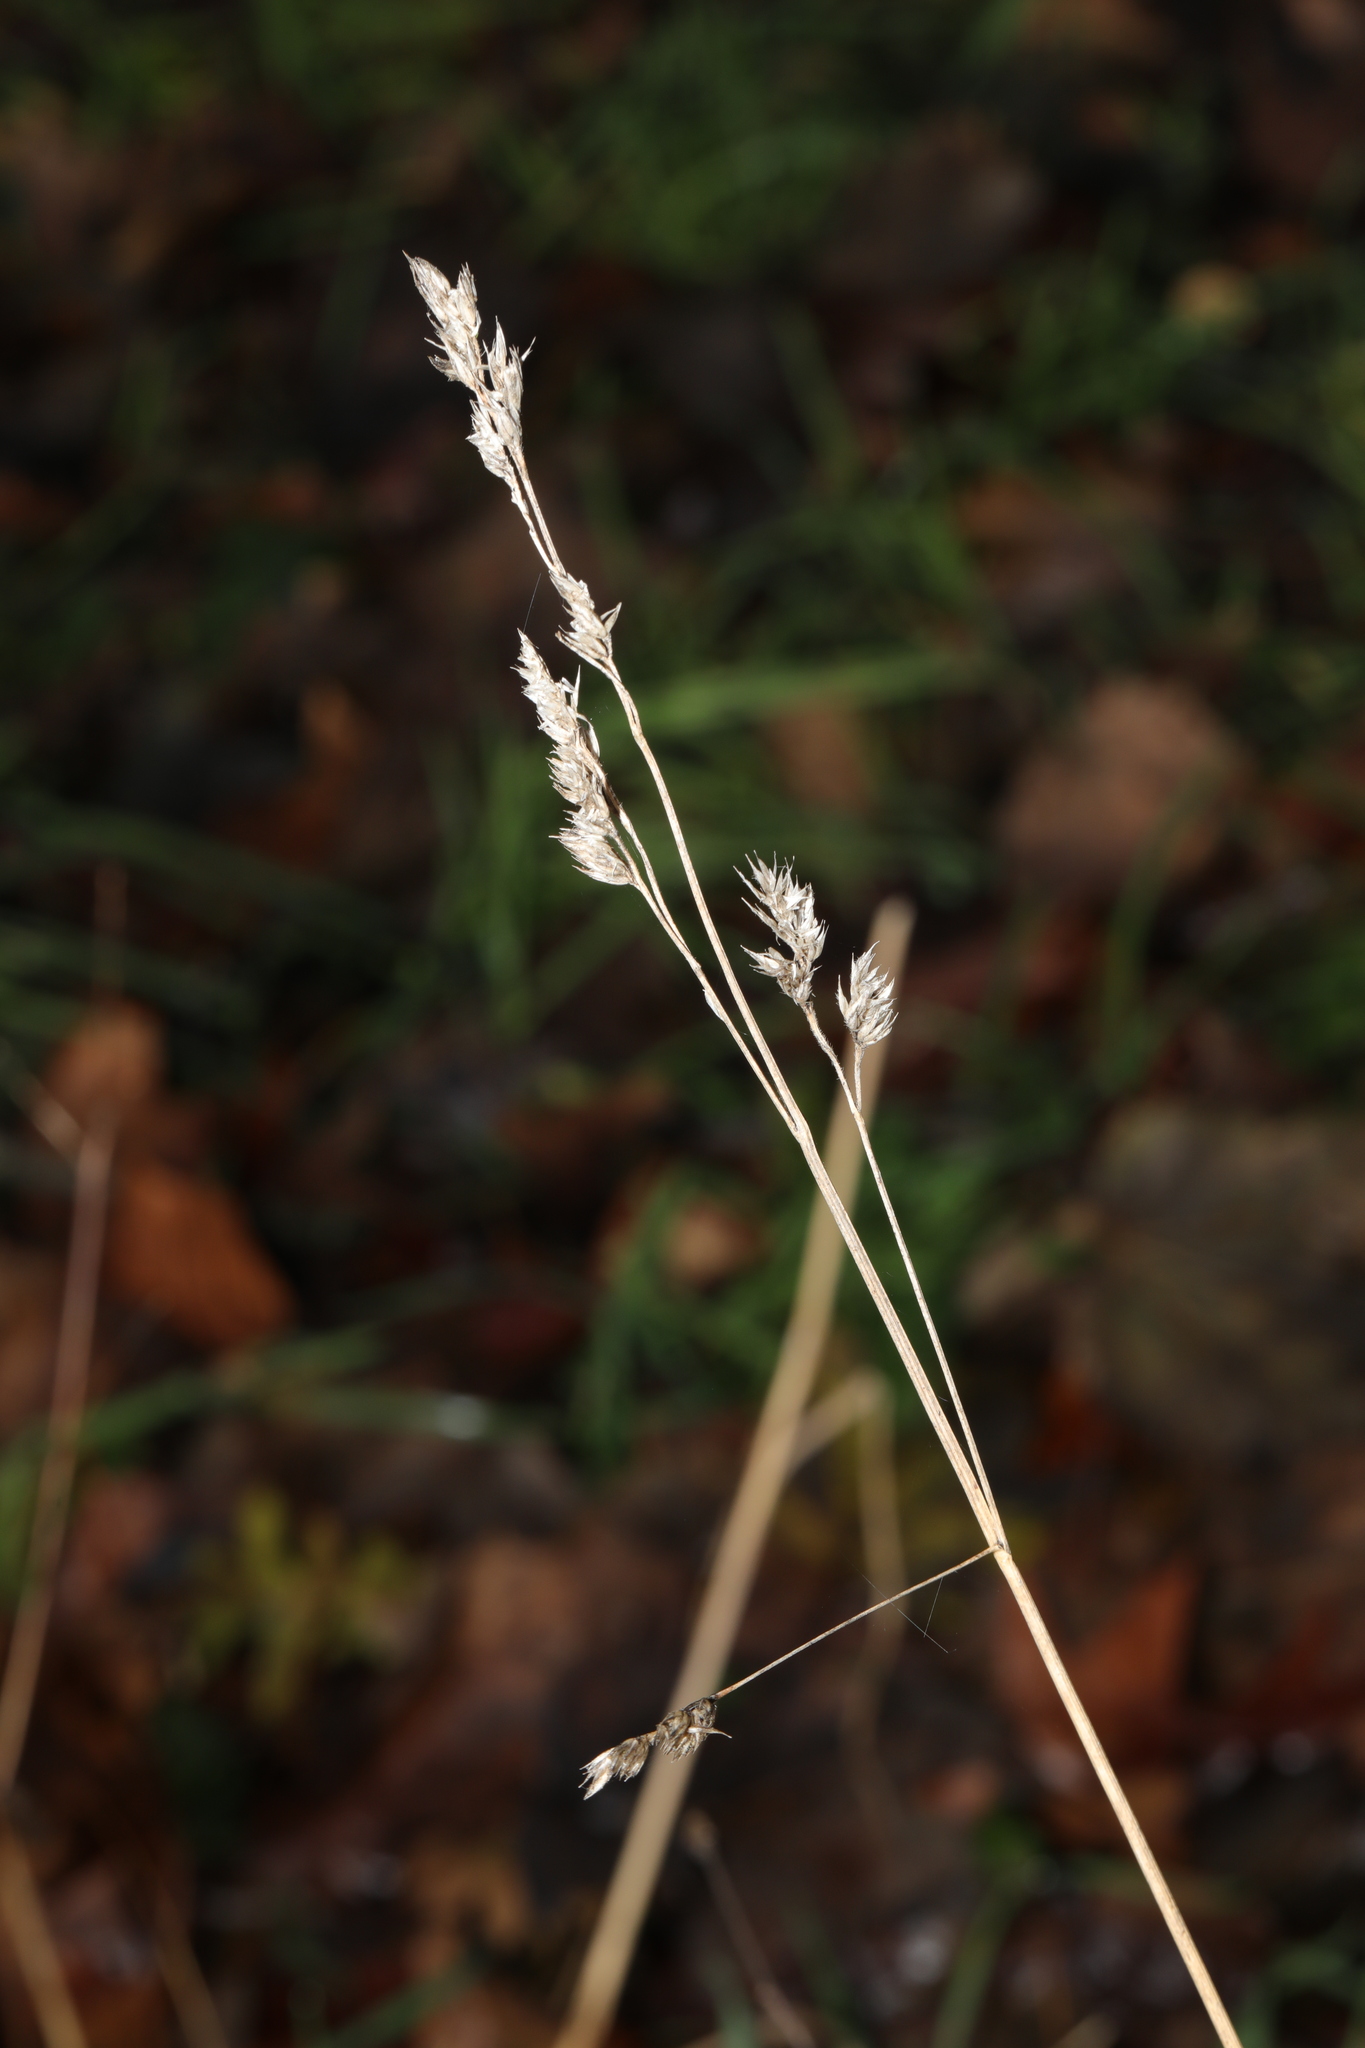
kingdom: Plantae
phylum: Tracheophyta
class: Liliopsida
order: Poales
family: Poaceae
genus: Dactylis
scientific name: Dactylis glomerata
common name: Orchardgrass
